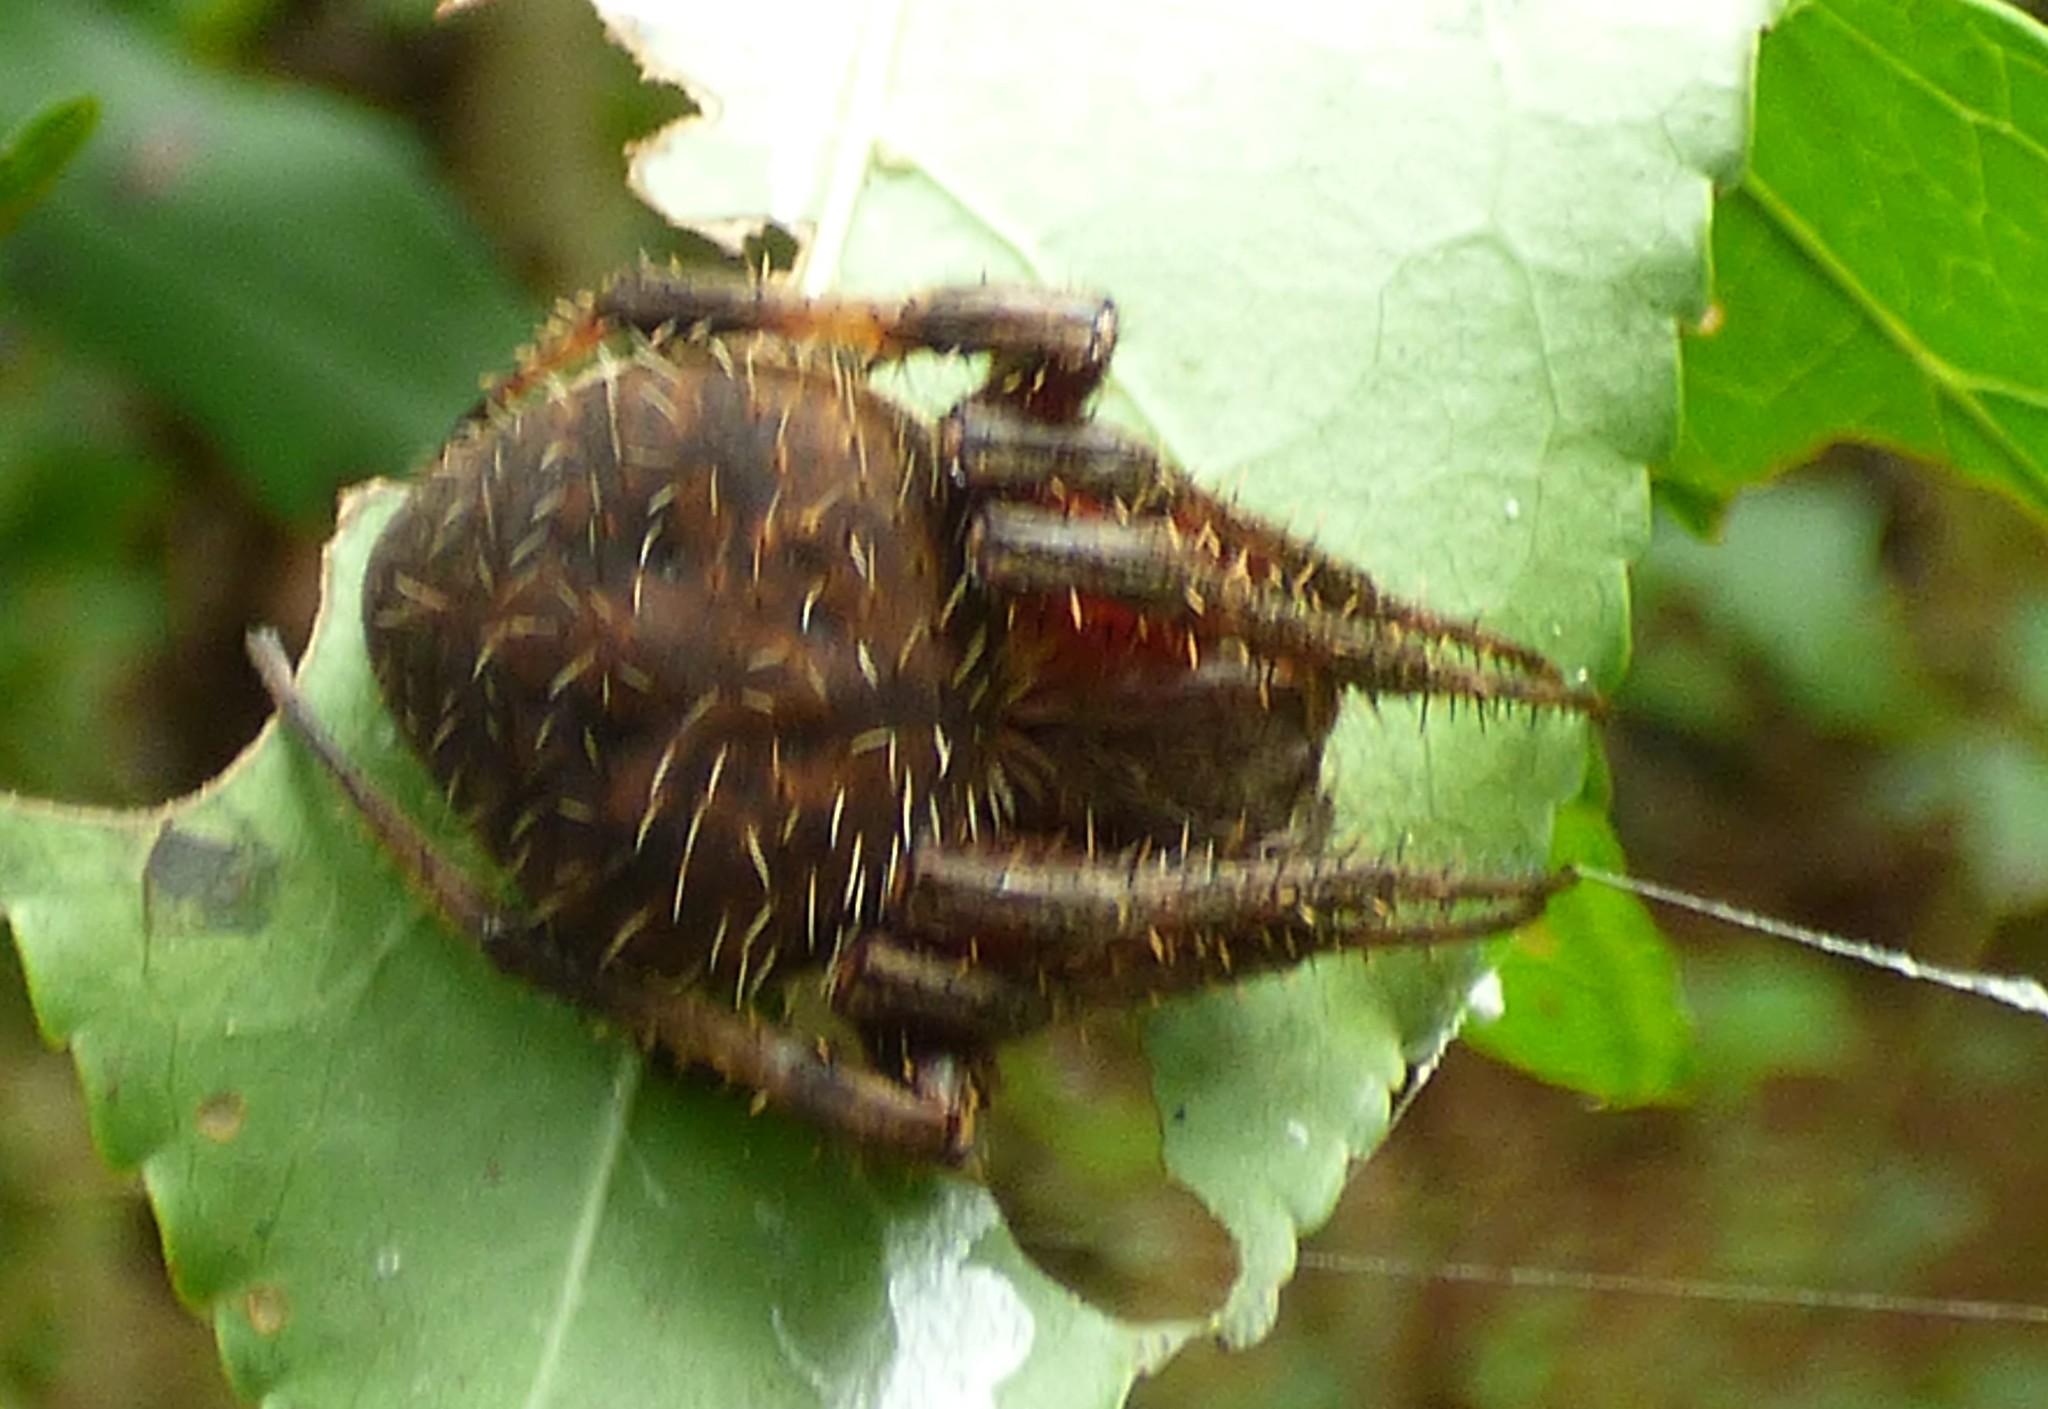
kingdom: Animalia
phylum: Arthropoda
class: Arachnida
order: Araneae
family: Araneidae
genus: Neoscona
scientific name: Neoscona crucifera
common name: Spotted orbweaver
